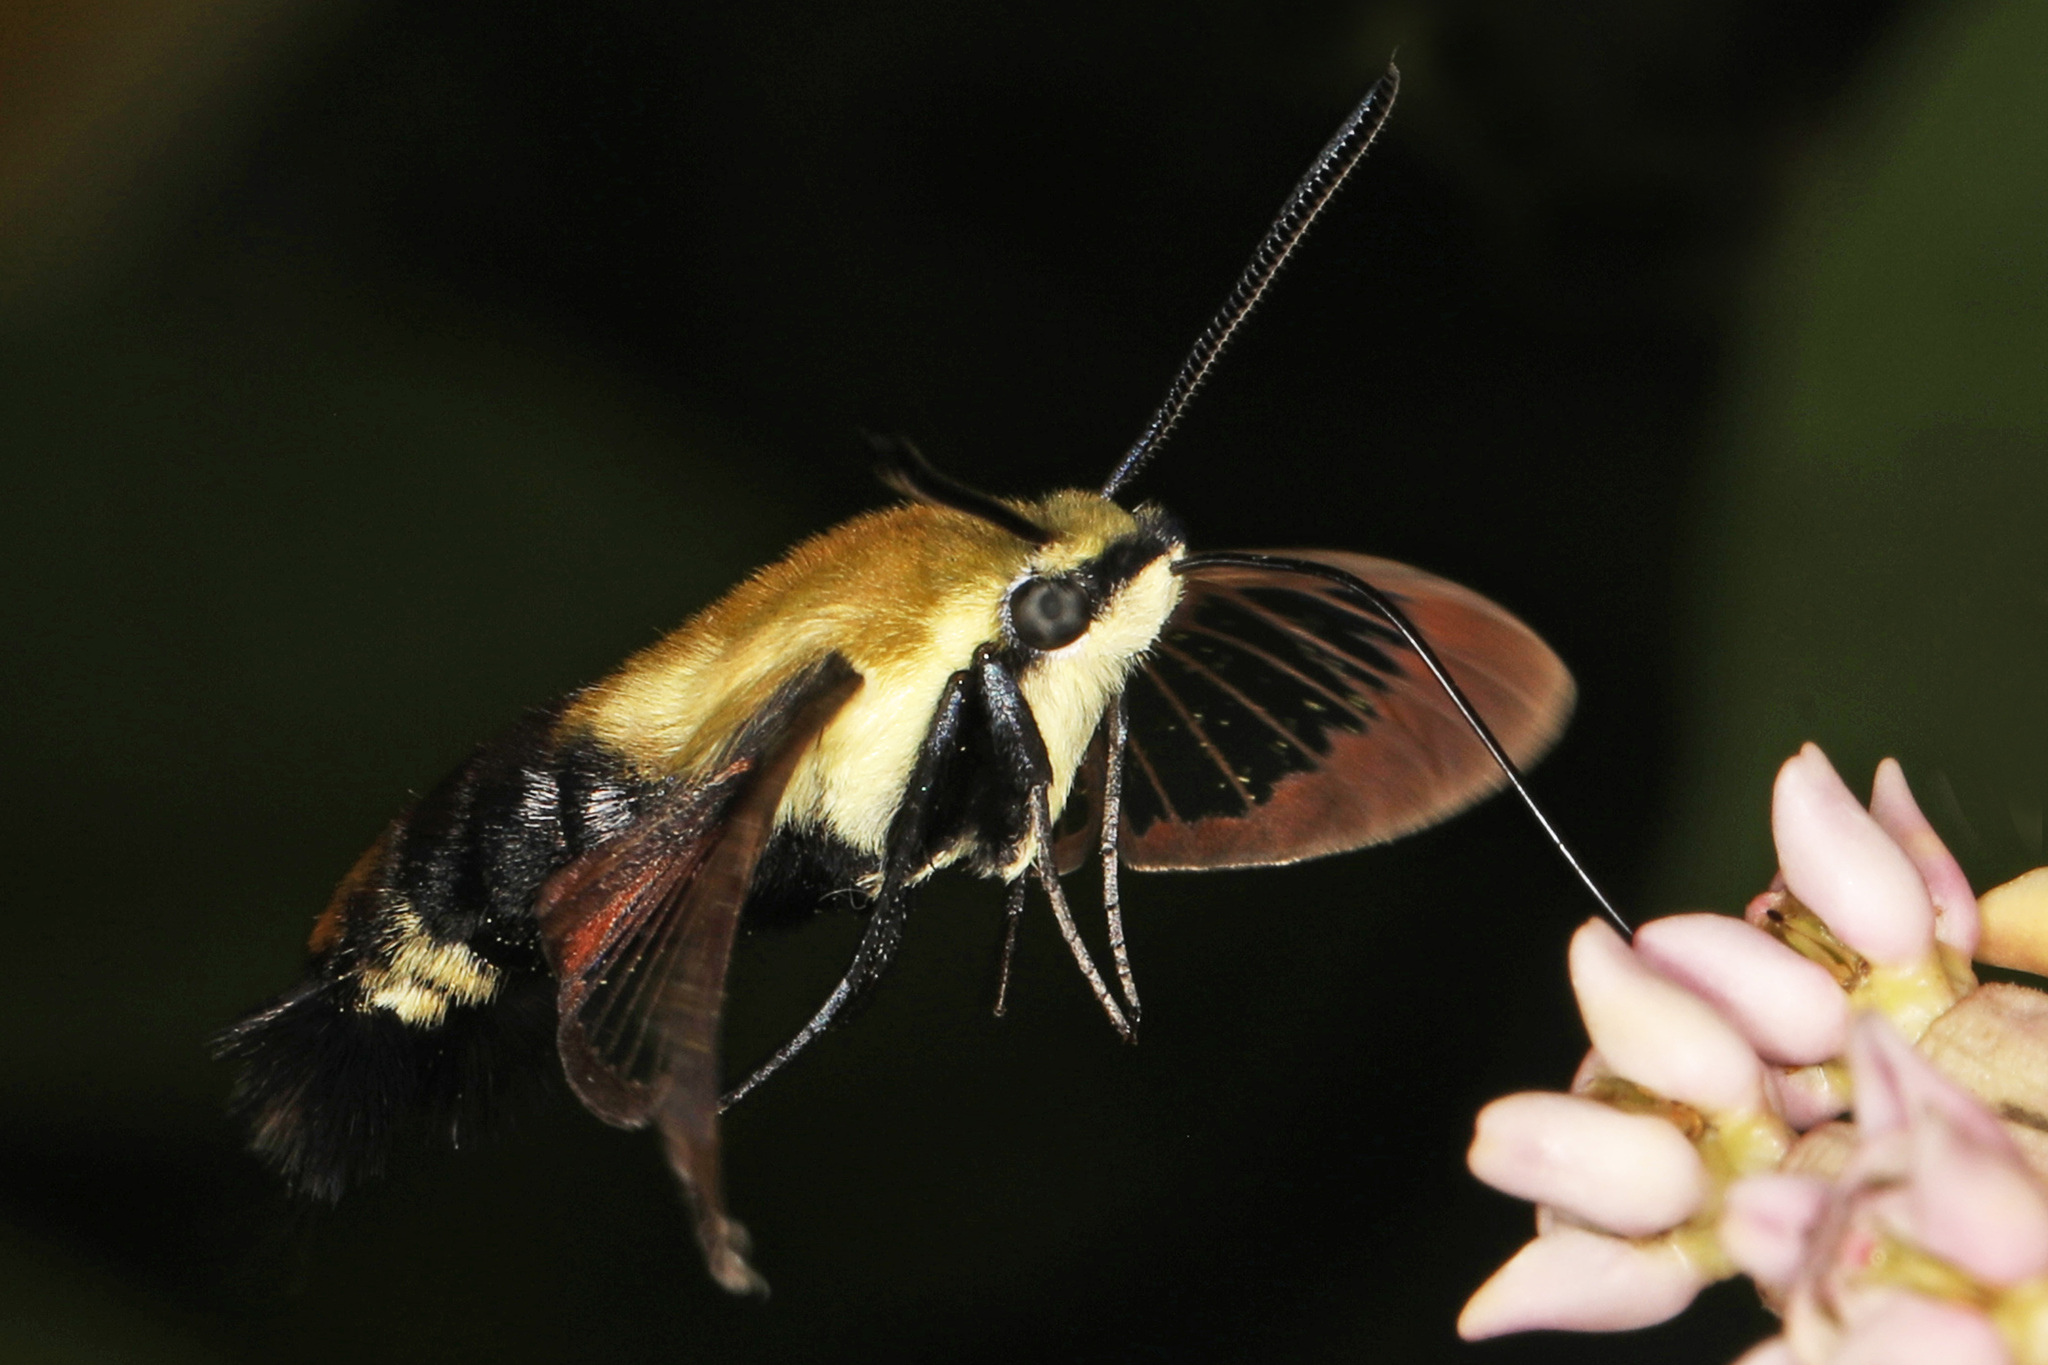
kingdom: Animalia
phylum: Arthropoda
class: Insecta
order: Lepidoptera
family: Sphingidae
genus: Hemaris
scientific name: Hemaris diffinis
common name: Bumblebee moth
